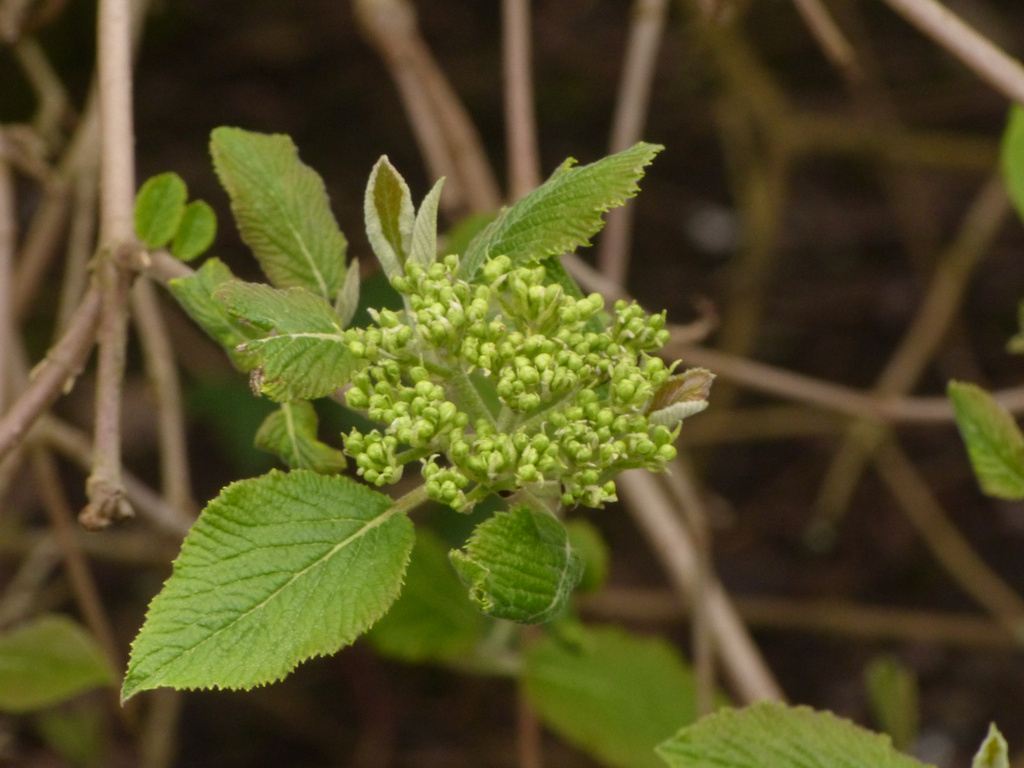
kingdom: Plantae
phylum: Tracheophyta
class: Magnoliopsida
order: Dipsacales
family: Viburnaceae
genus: Viburnum
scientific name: Viburnum lantana
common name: Wayfaring tree
